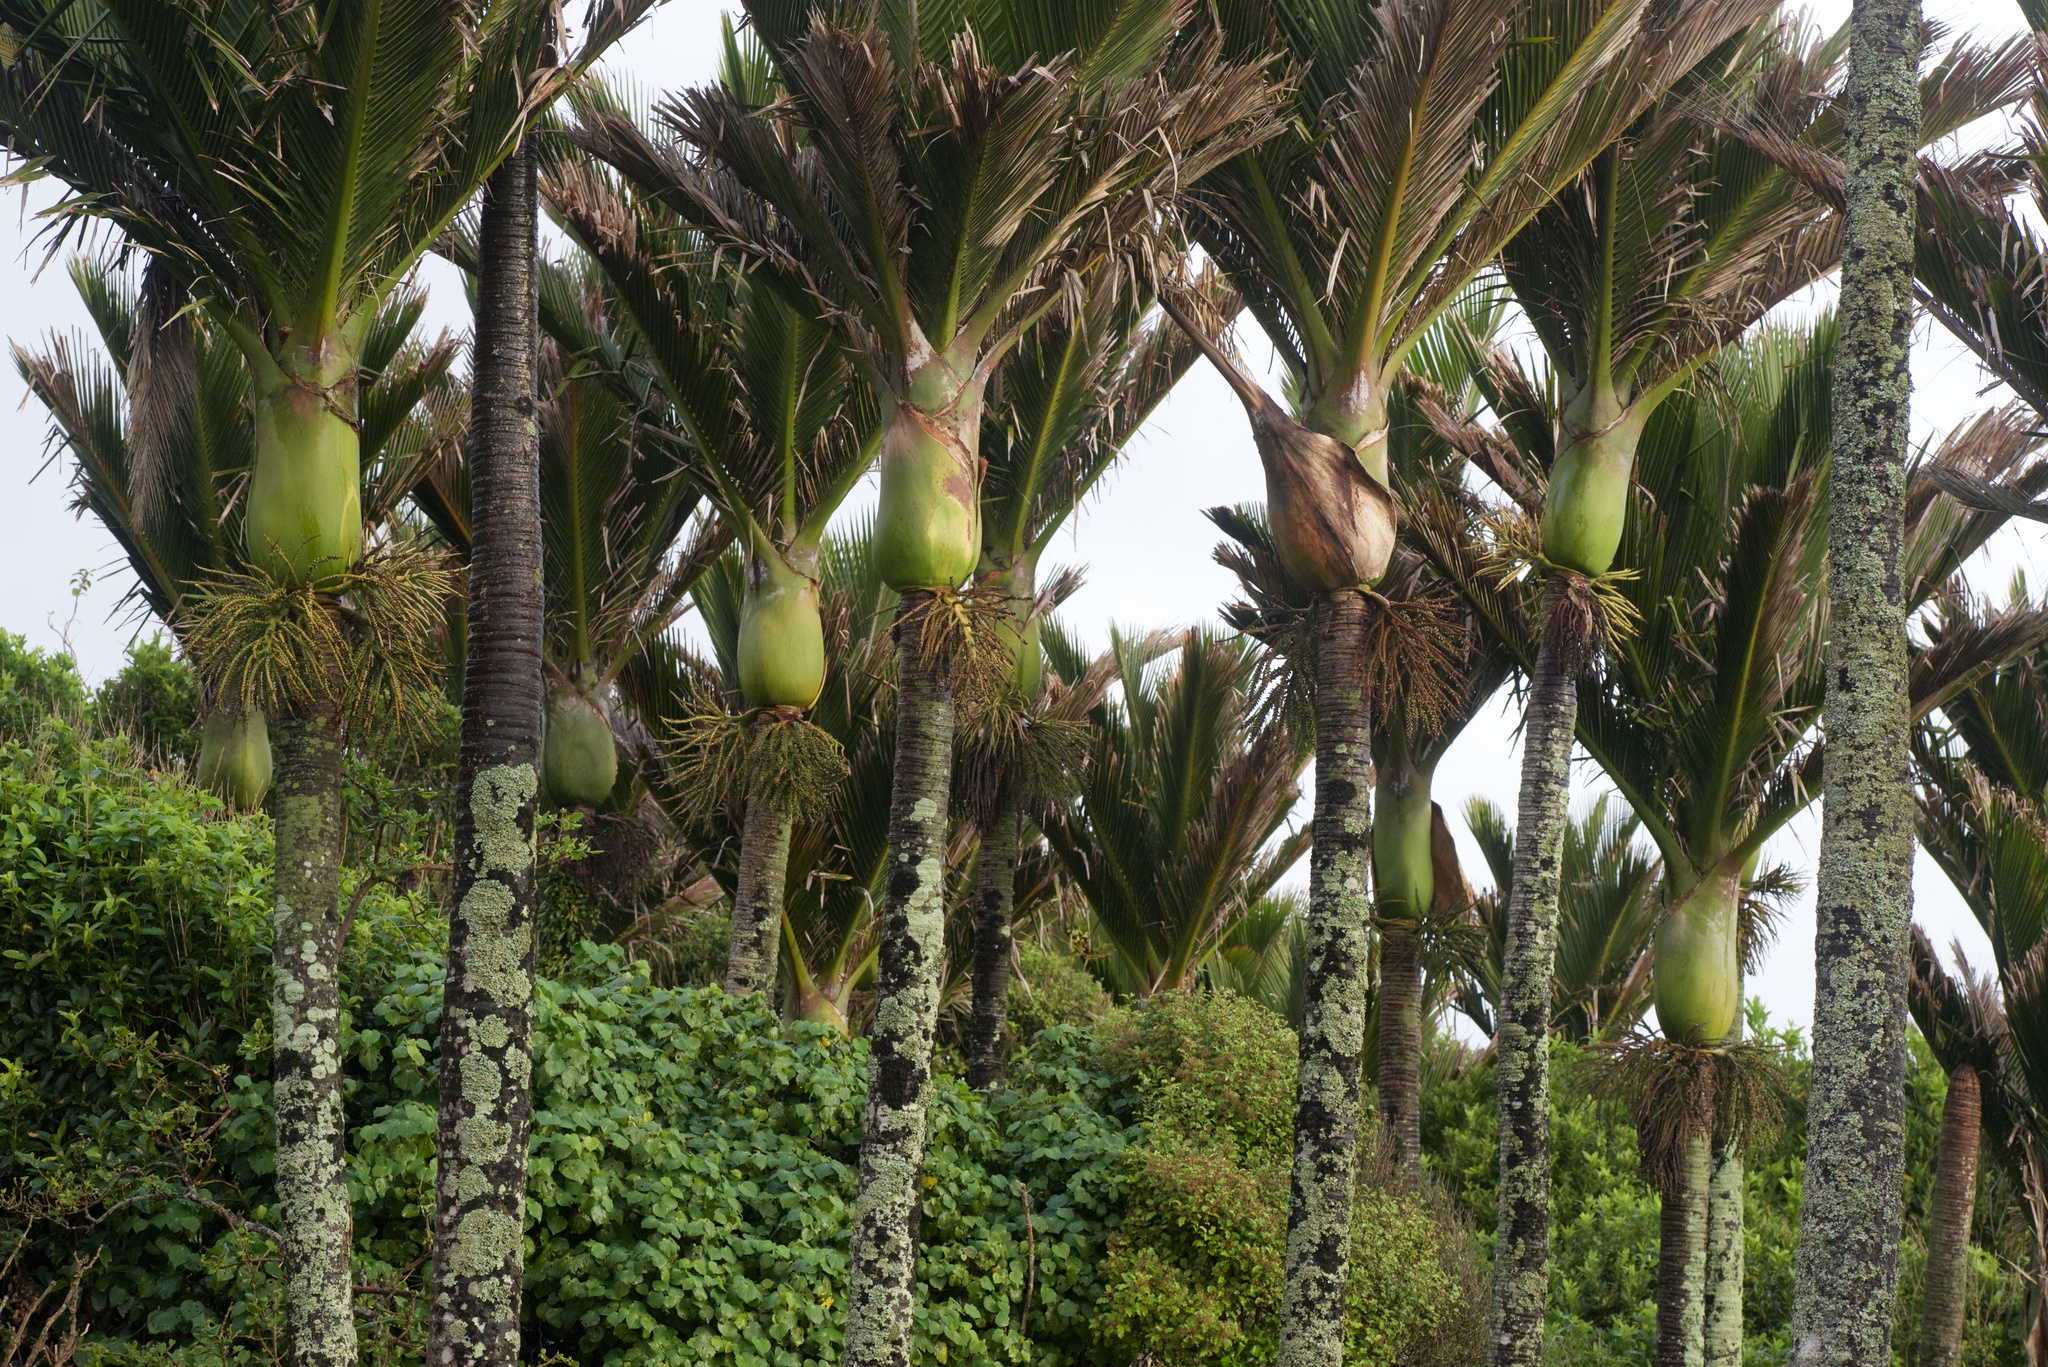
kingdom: Plantae
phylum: Tracheophyta
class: Liliopsida
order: Arecales
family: Arecaceae
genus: Rhopalostylis
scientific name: Rhopalostylis sapida
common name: Feather-duster palm
